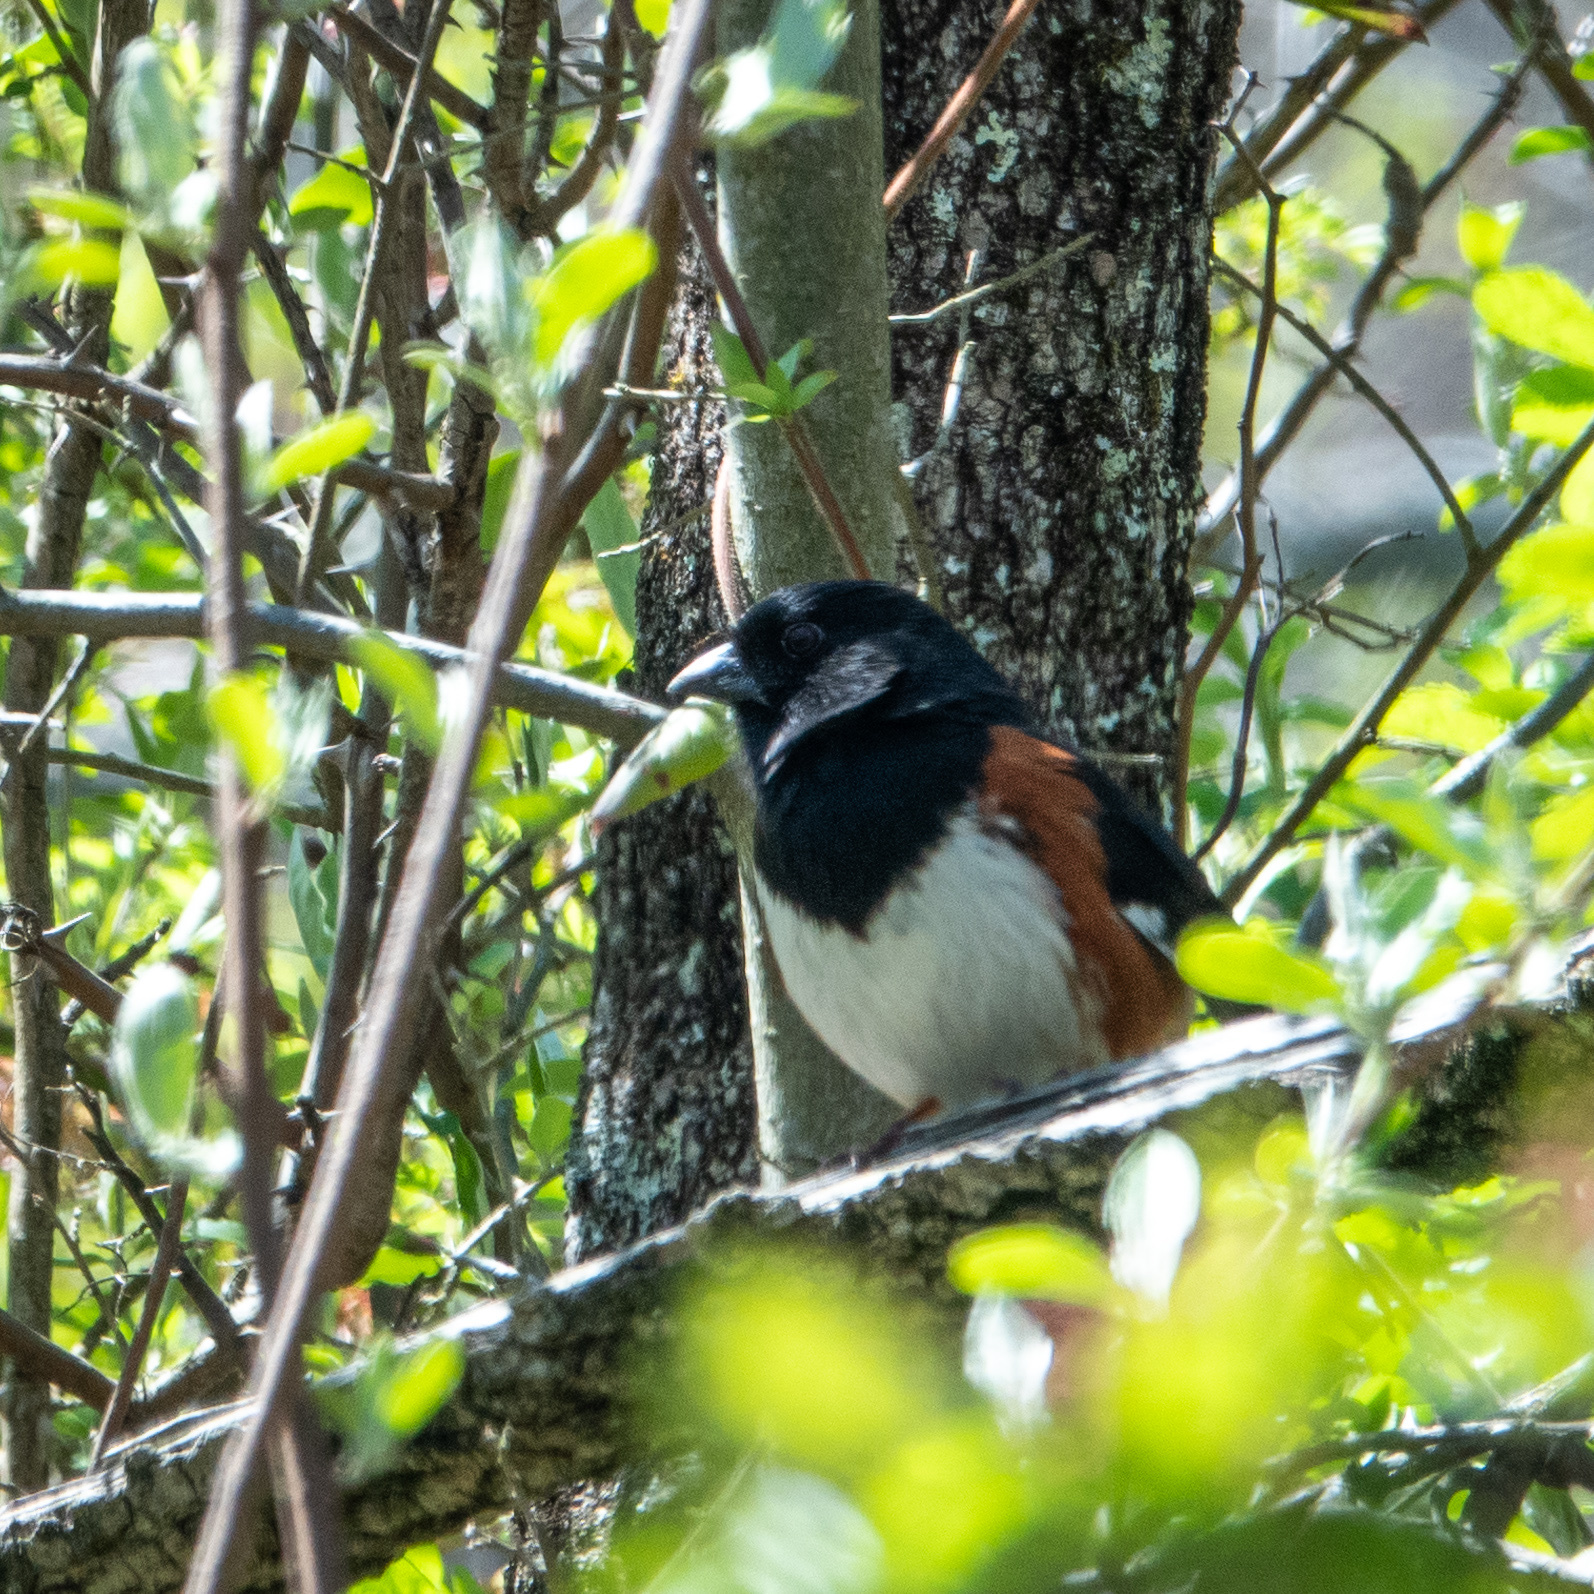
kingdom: Animalia
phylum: Chordata
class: Aves
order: Passeriformes
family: Passerellidae
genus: Pipilo
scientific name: Pipilo erythrophthalmus
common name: Eastern towhee
